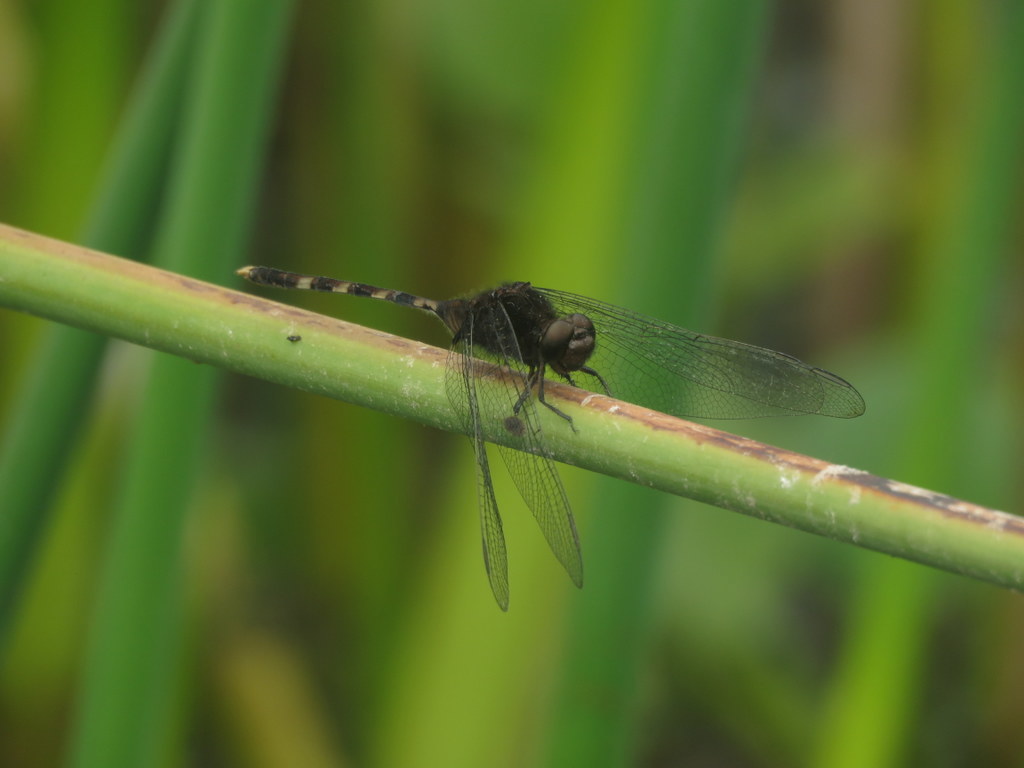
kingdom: Animalia
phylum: Arthropoda
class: Insecta
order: Odonata
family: Libellulidae
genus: Erythemis
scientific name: Erythemis plebeja
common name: Pin-tailed pondhawk
